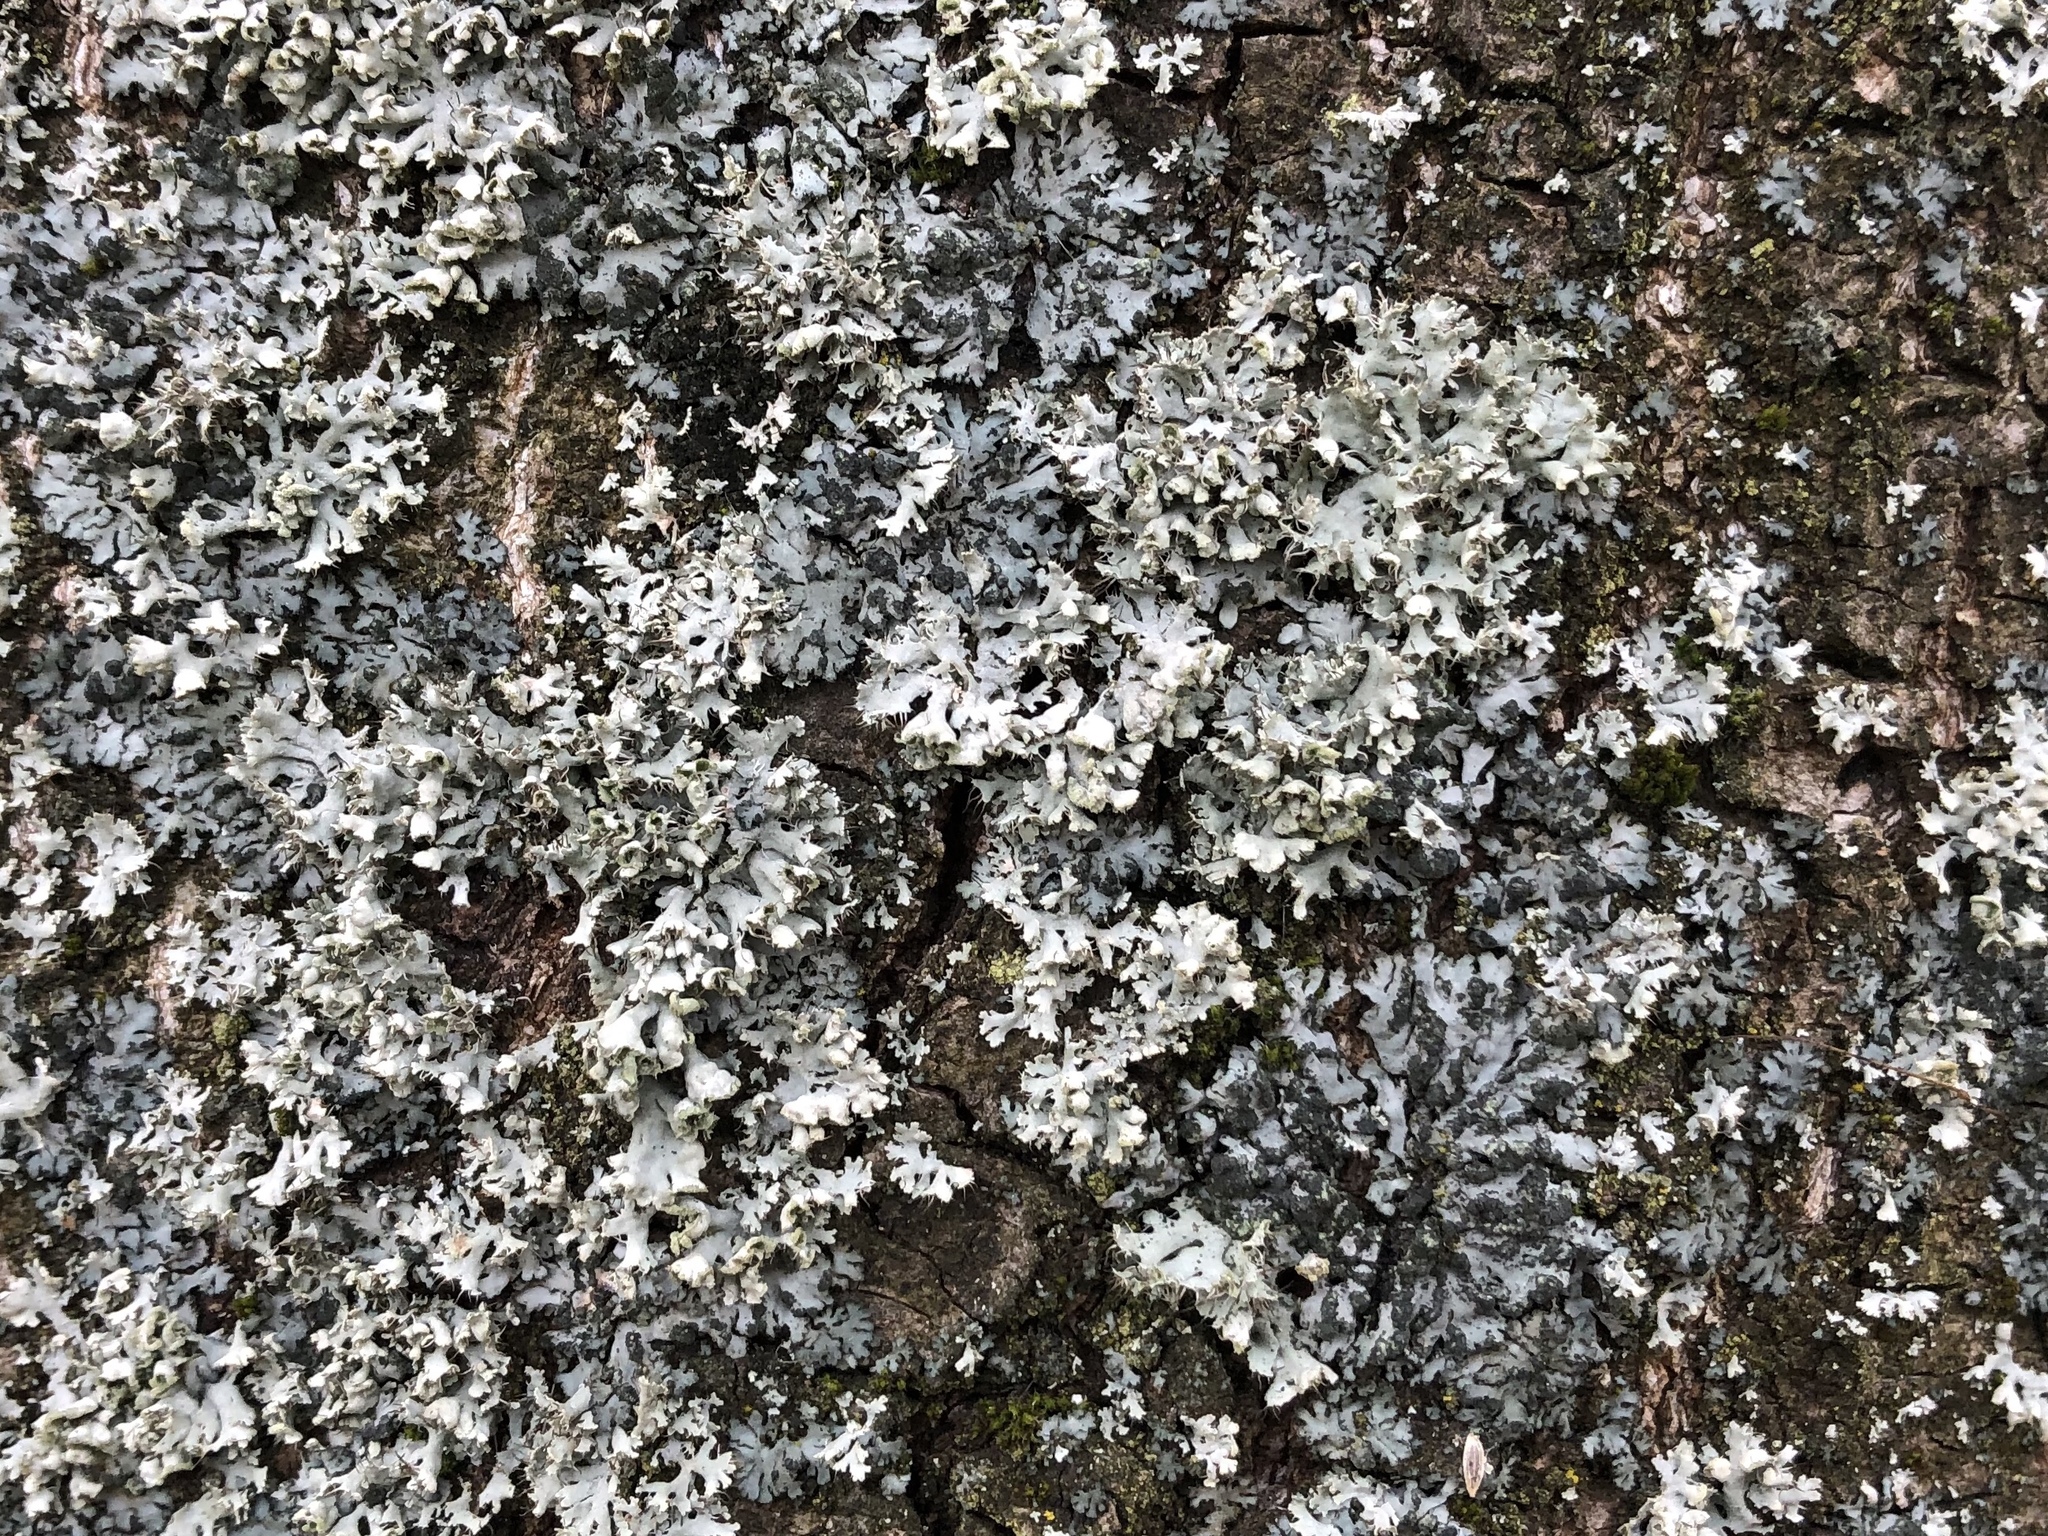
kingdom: Fungi
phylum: Ascomycota
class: Lecanoromycetes
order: Caliciales
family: Physciaceae
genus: Physcia
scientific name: Physcia adscendens
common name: Hooded rosette lichen
